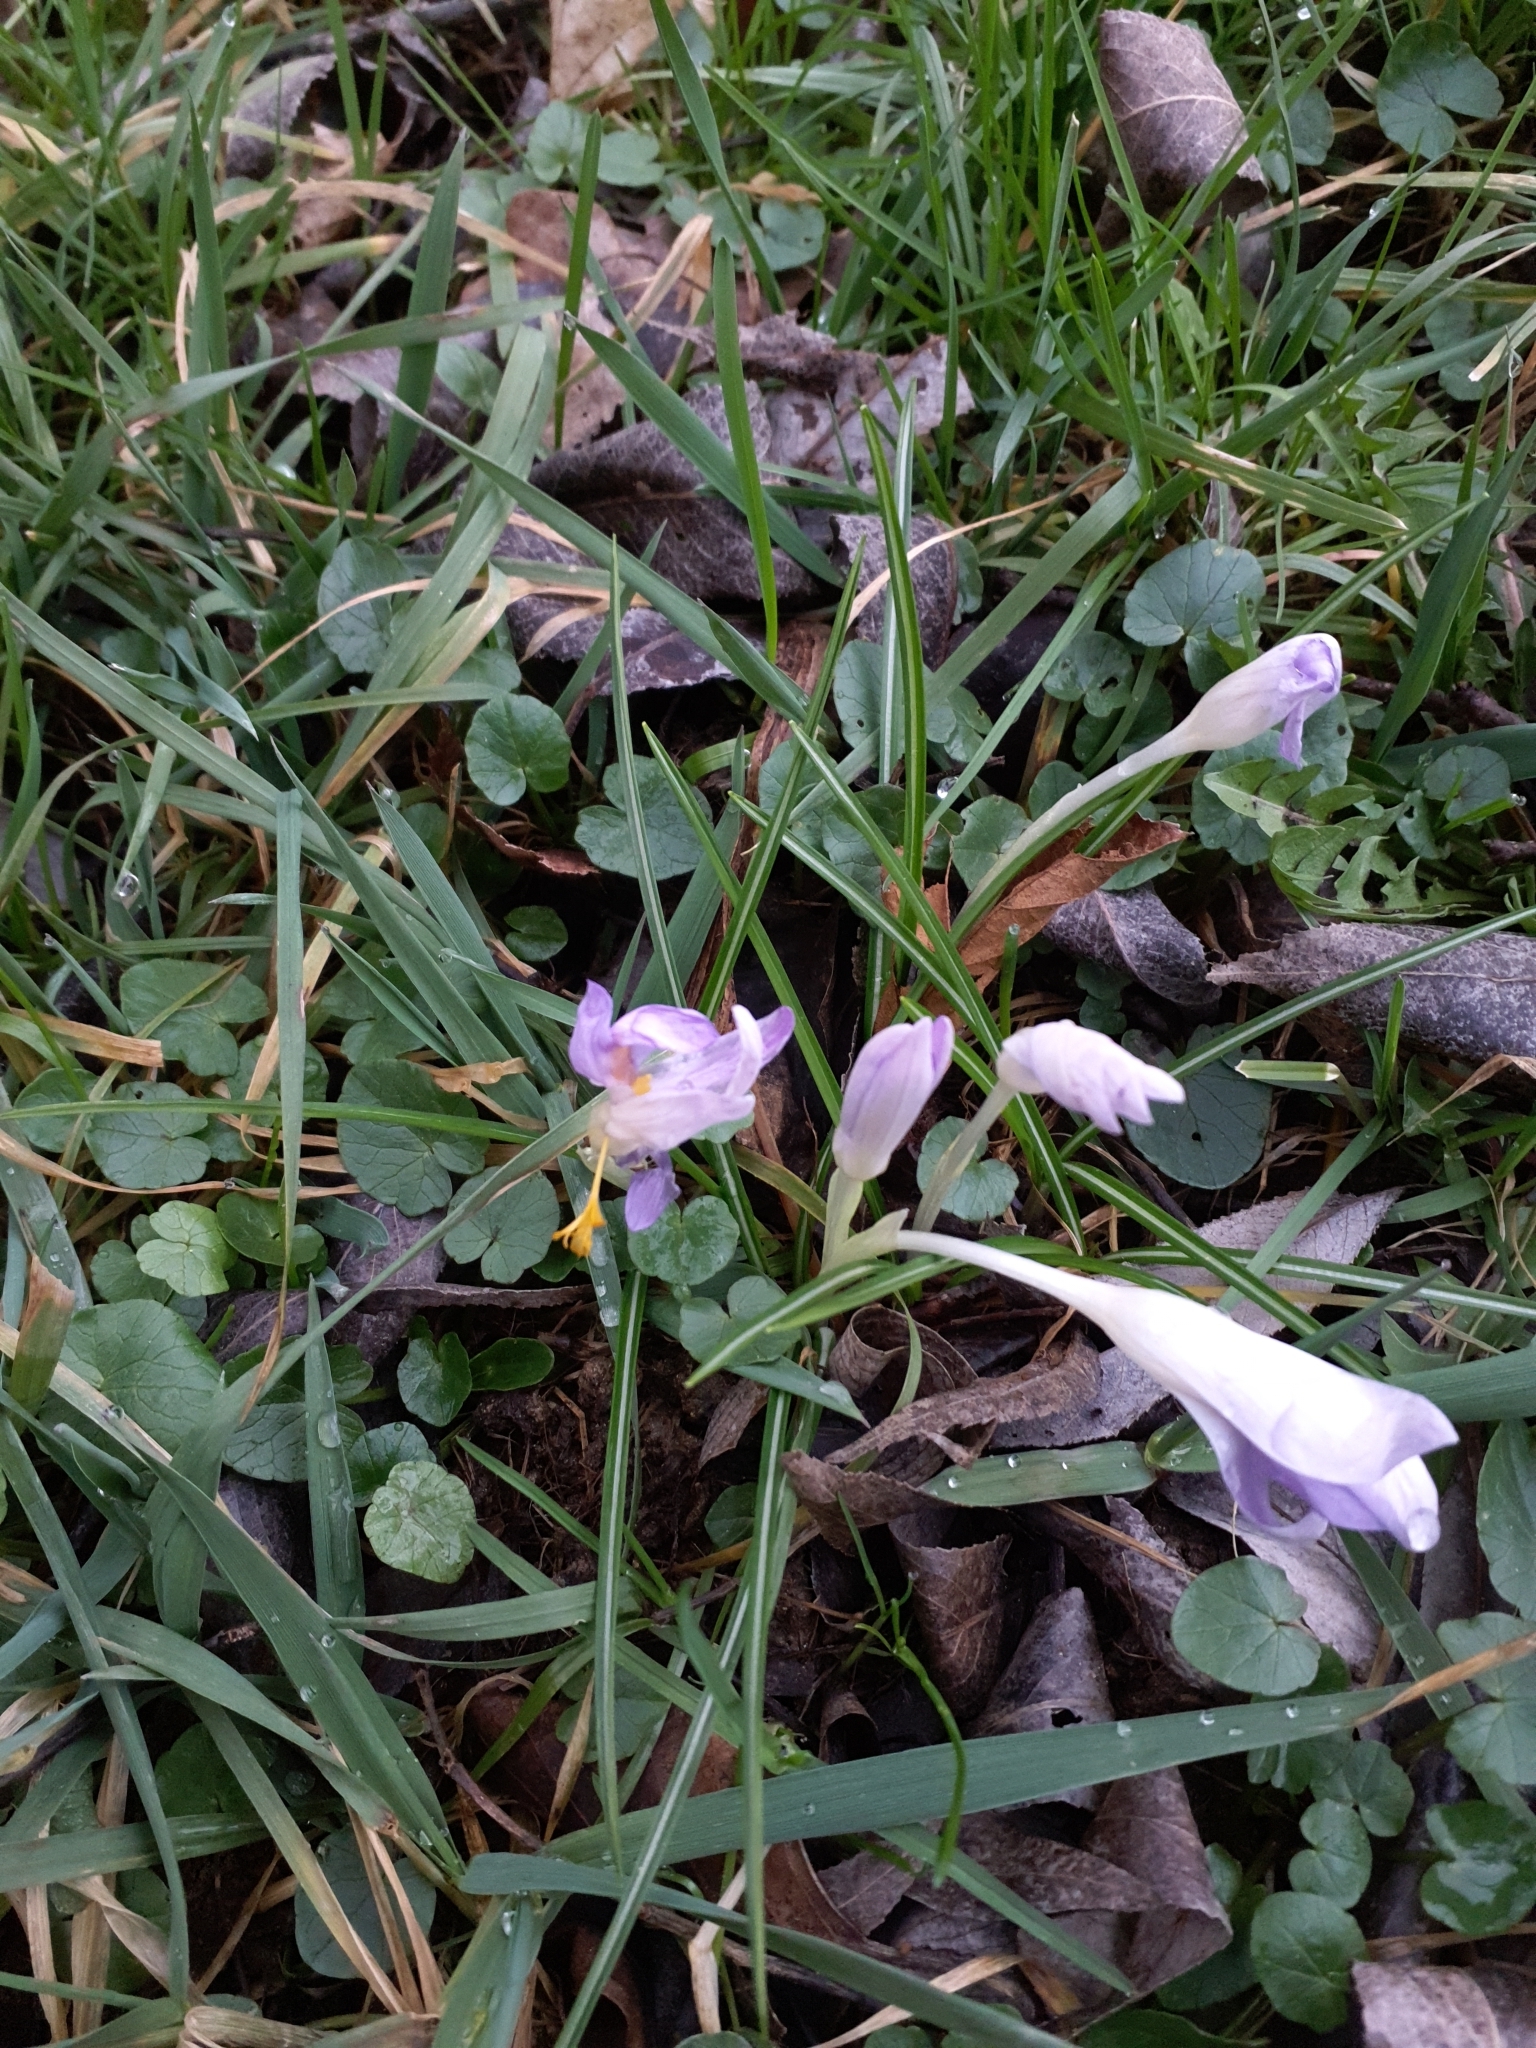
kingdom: Plantae
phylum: Tracheophyta
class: Liliopsida
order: Asparagales
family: Iridaceae
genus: Crocus
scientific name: Crocus tommasinianus
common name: Early crocus
